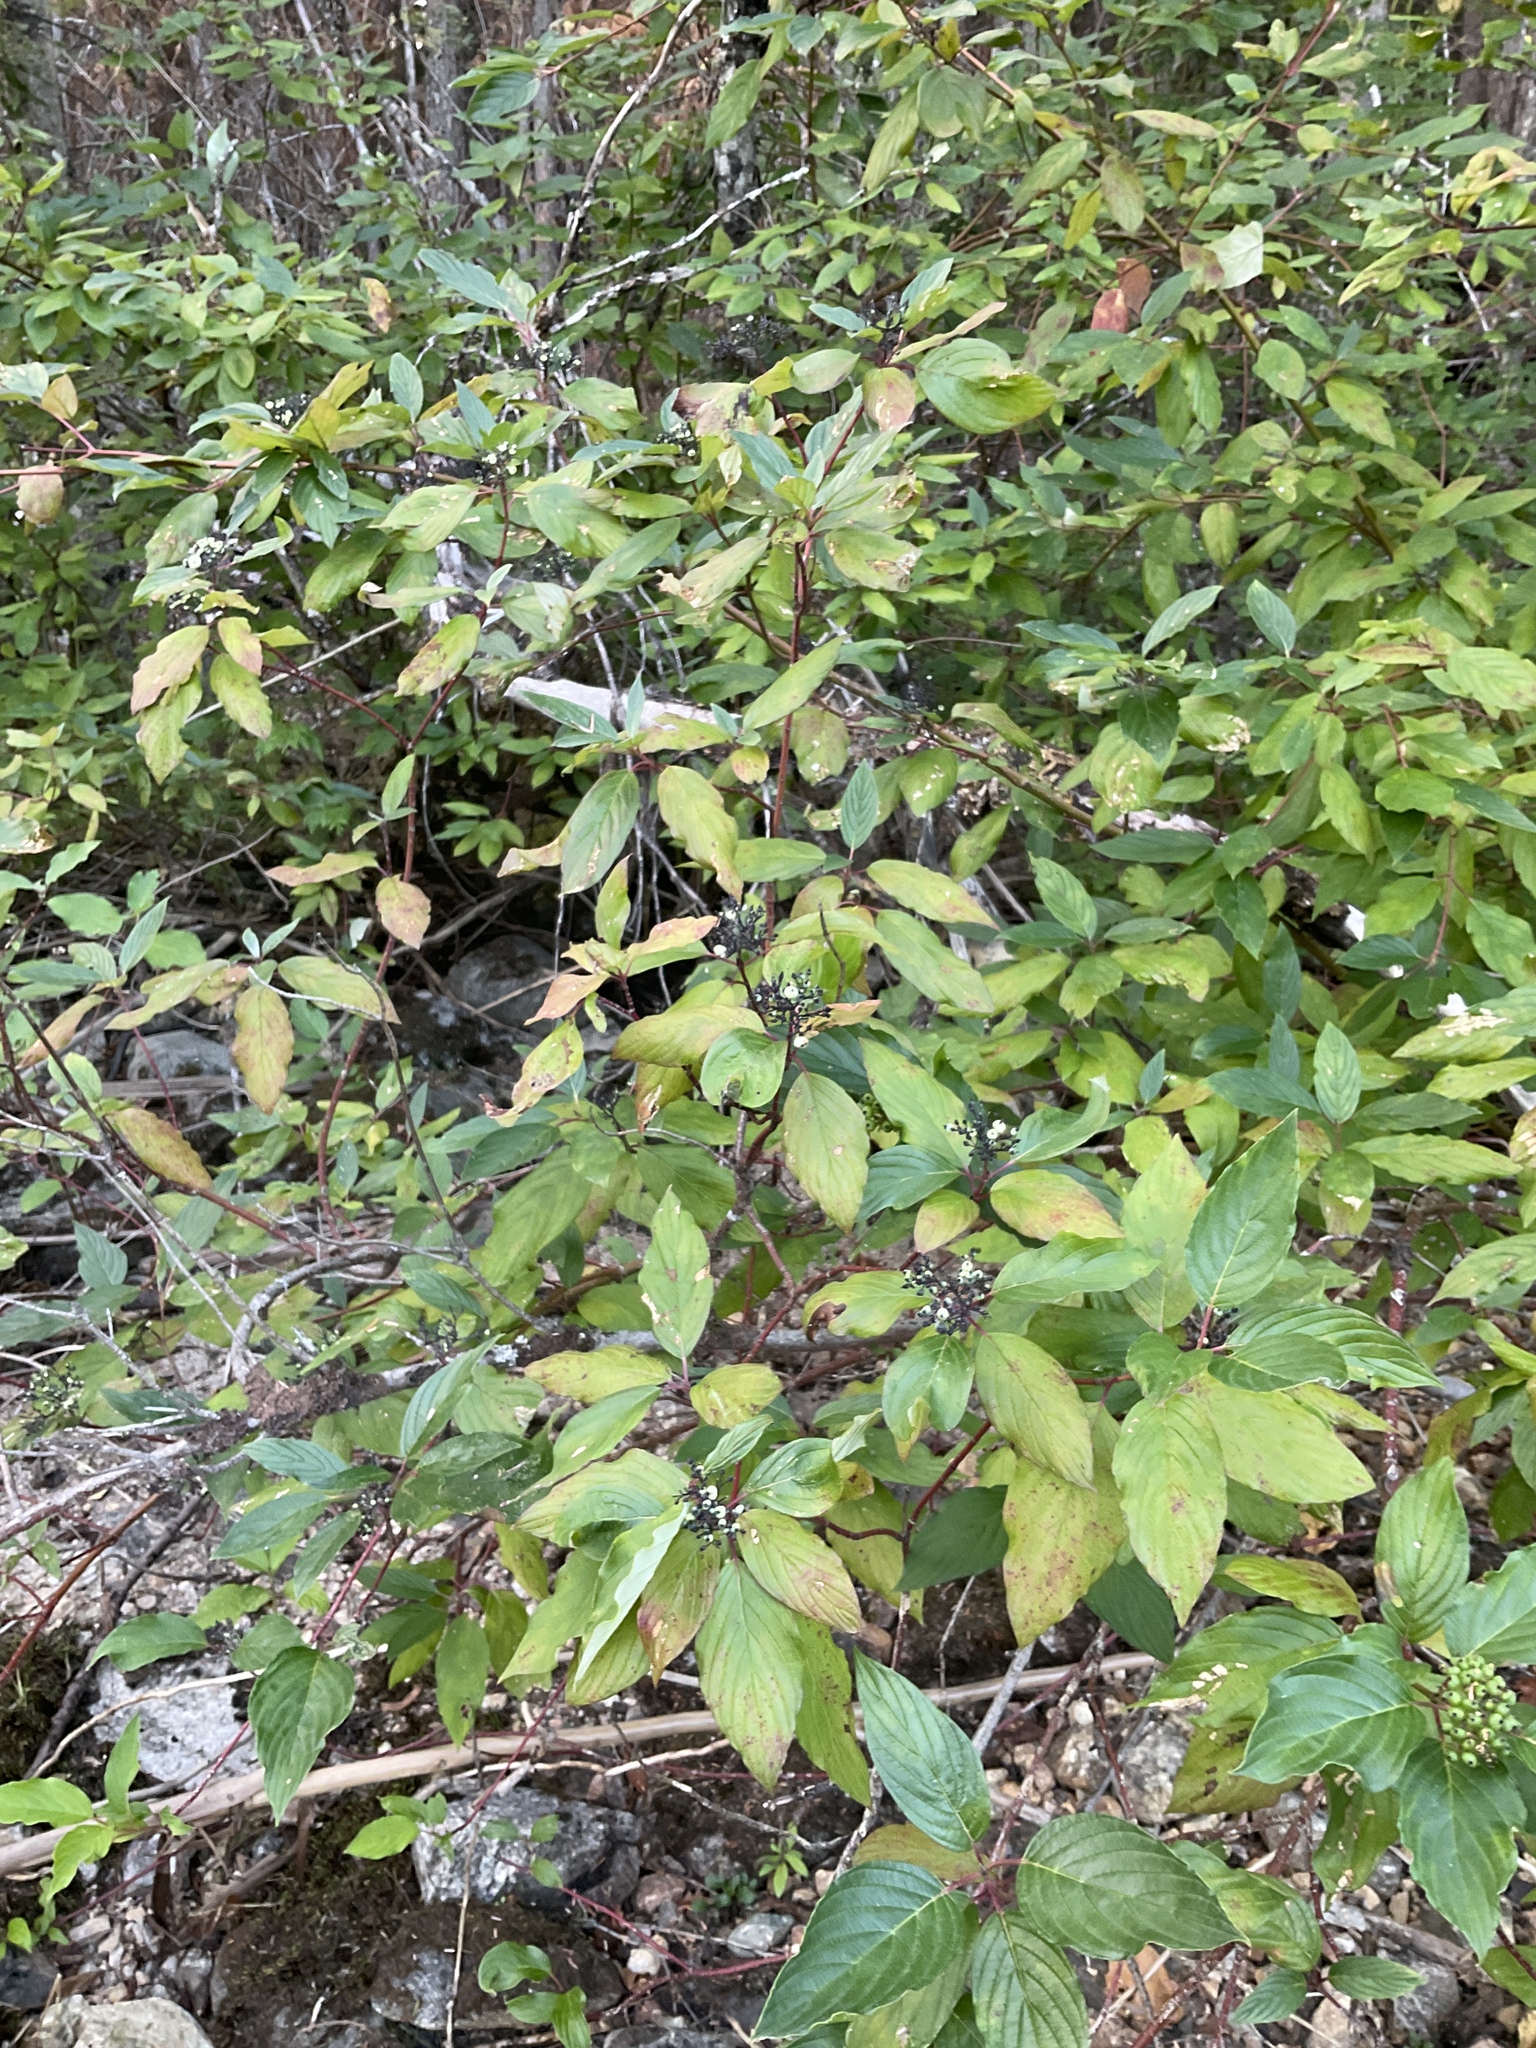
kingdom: Plantae
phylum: Tracheophyta
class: Magnoliopsida
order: Cornales
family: Cornaceae
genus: Cornus
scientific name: Cornus sericea
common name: Red-osier dogwood
